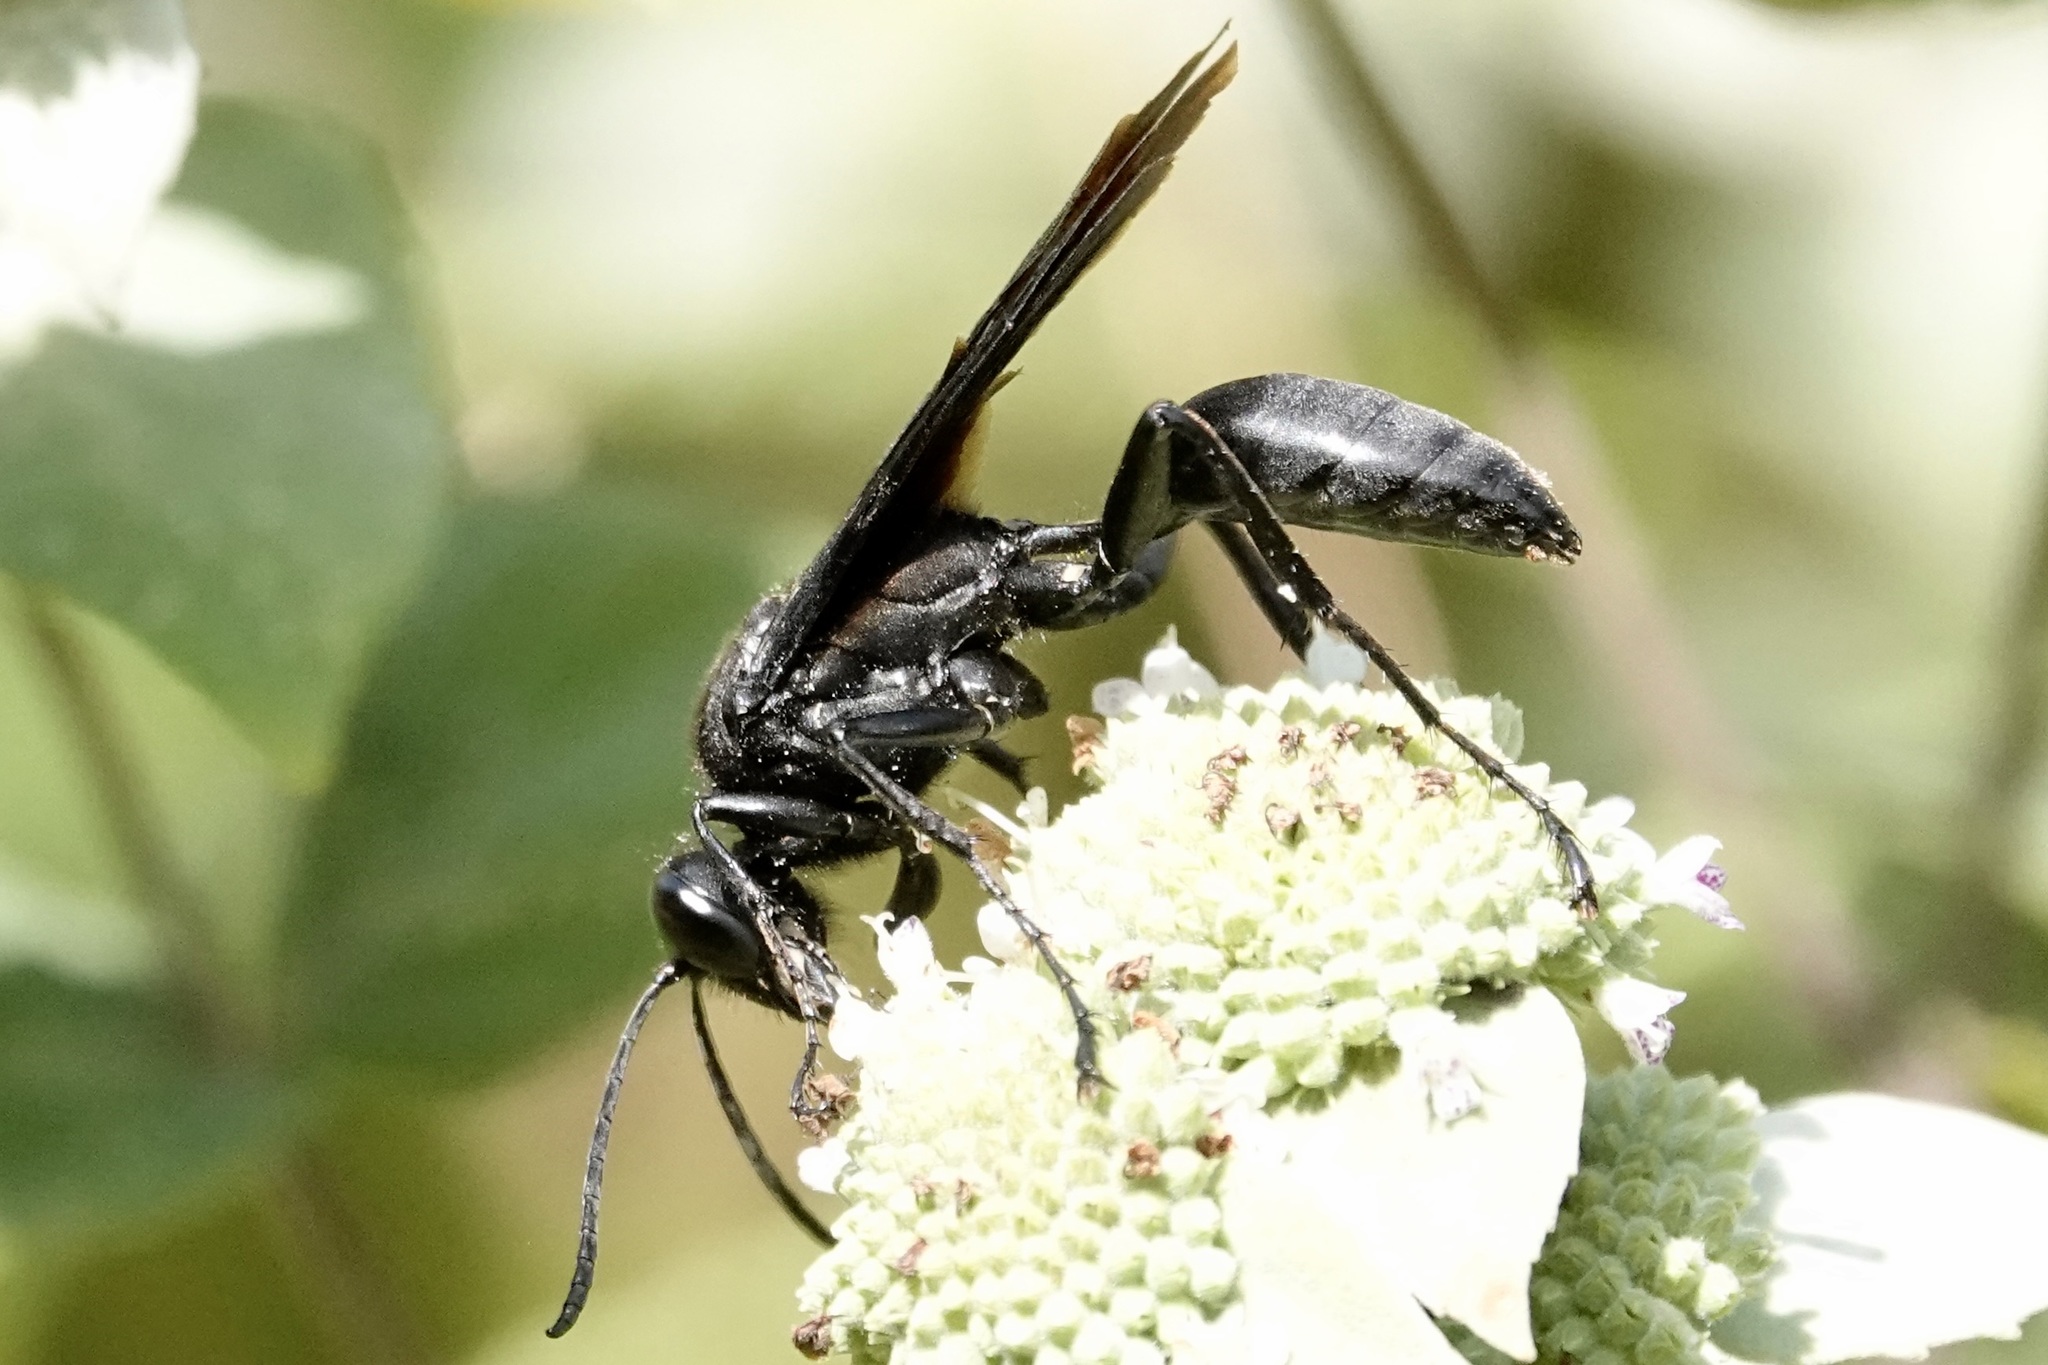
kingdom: Animalia
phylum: Arthropoda
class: Insecta
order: Hymenoptera
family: Sphecidae
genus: Sphex
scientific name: Sphex pensylvanicus
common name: Great black digger wasp
